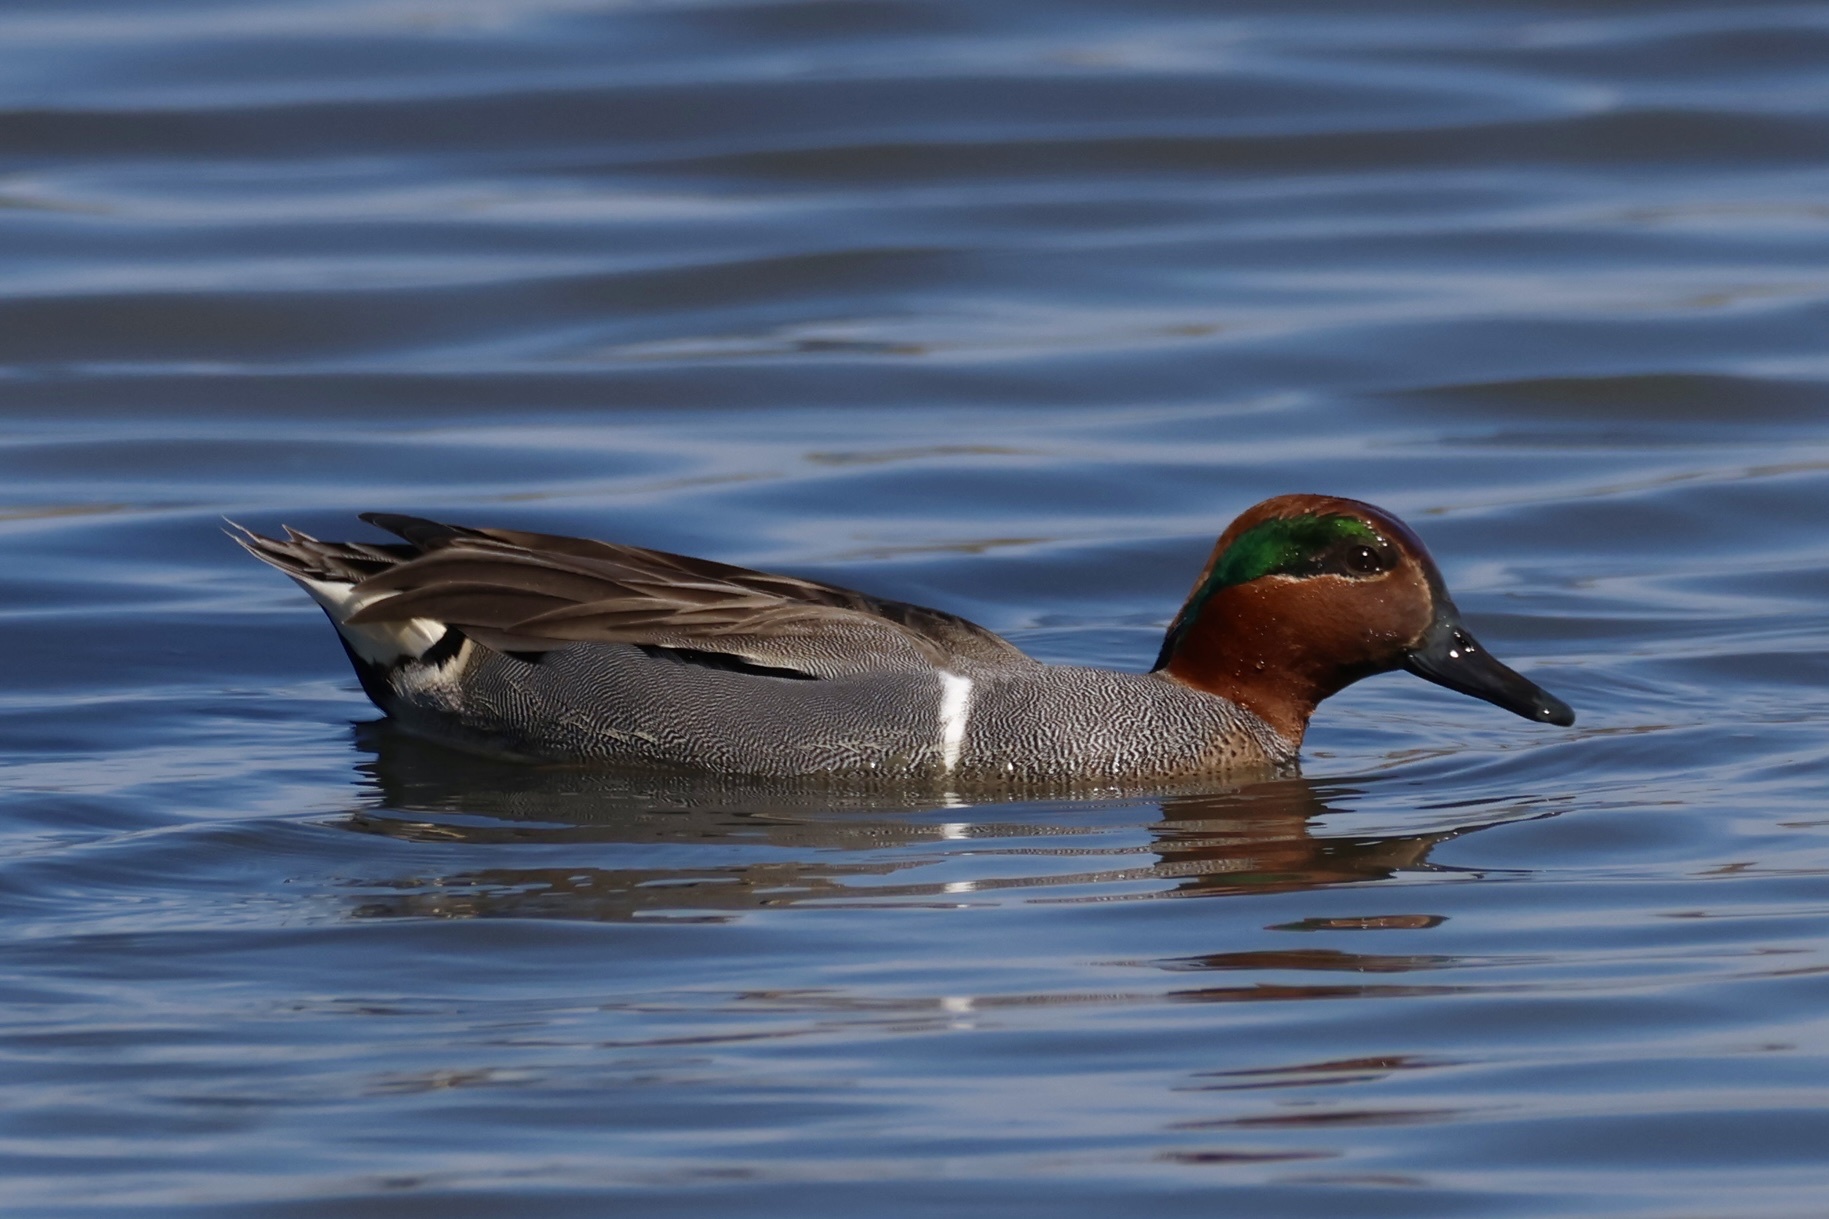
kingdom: Animalia
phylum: Chordata
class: Aves
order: Anseriformes
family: Anatidae
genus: Anas
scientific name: Anas crecca
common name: Eurasian teal
